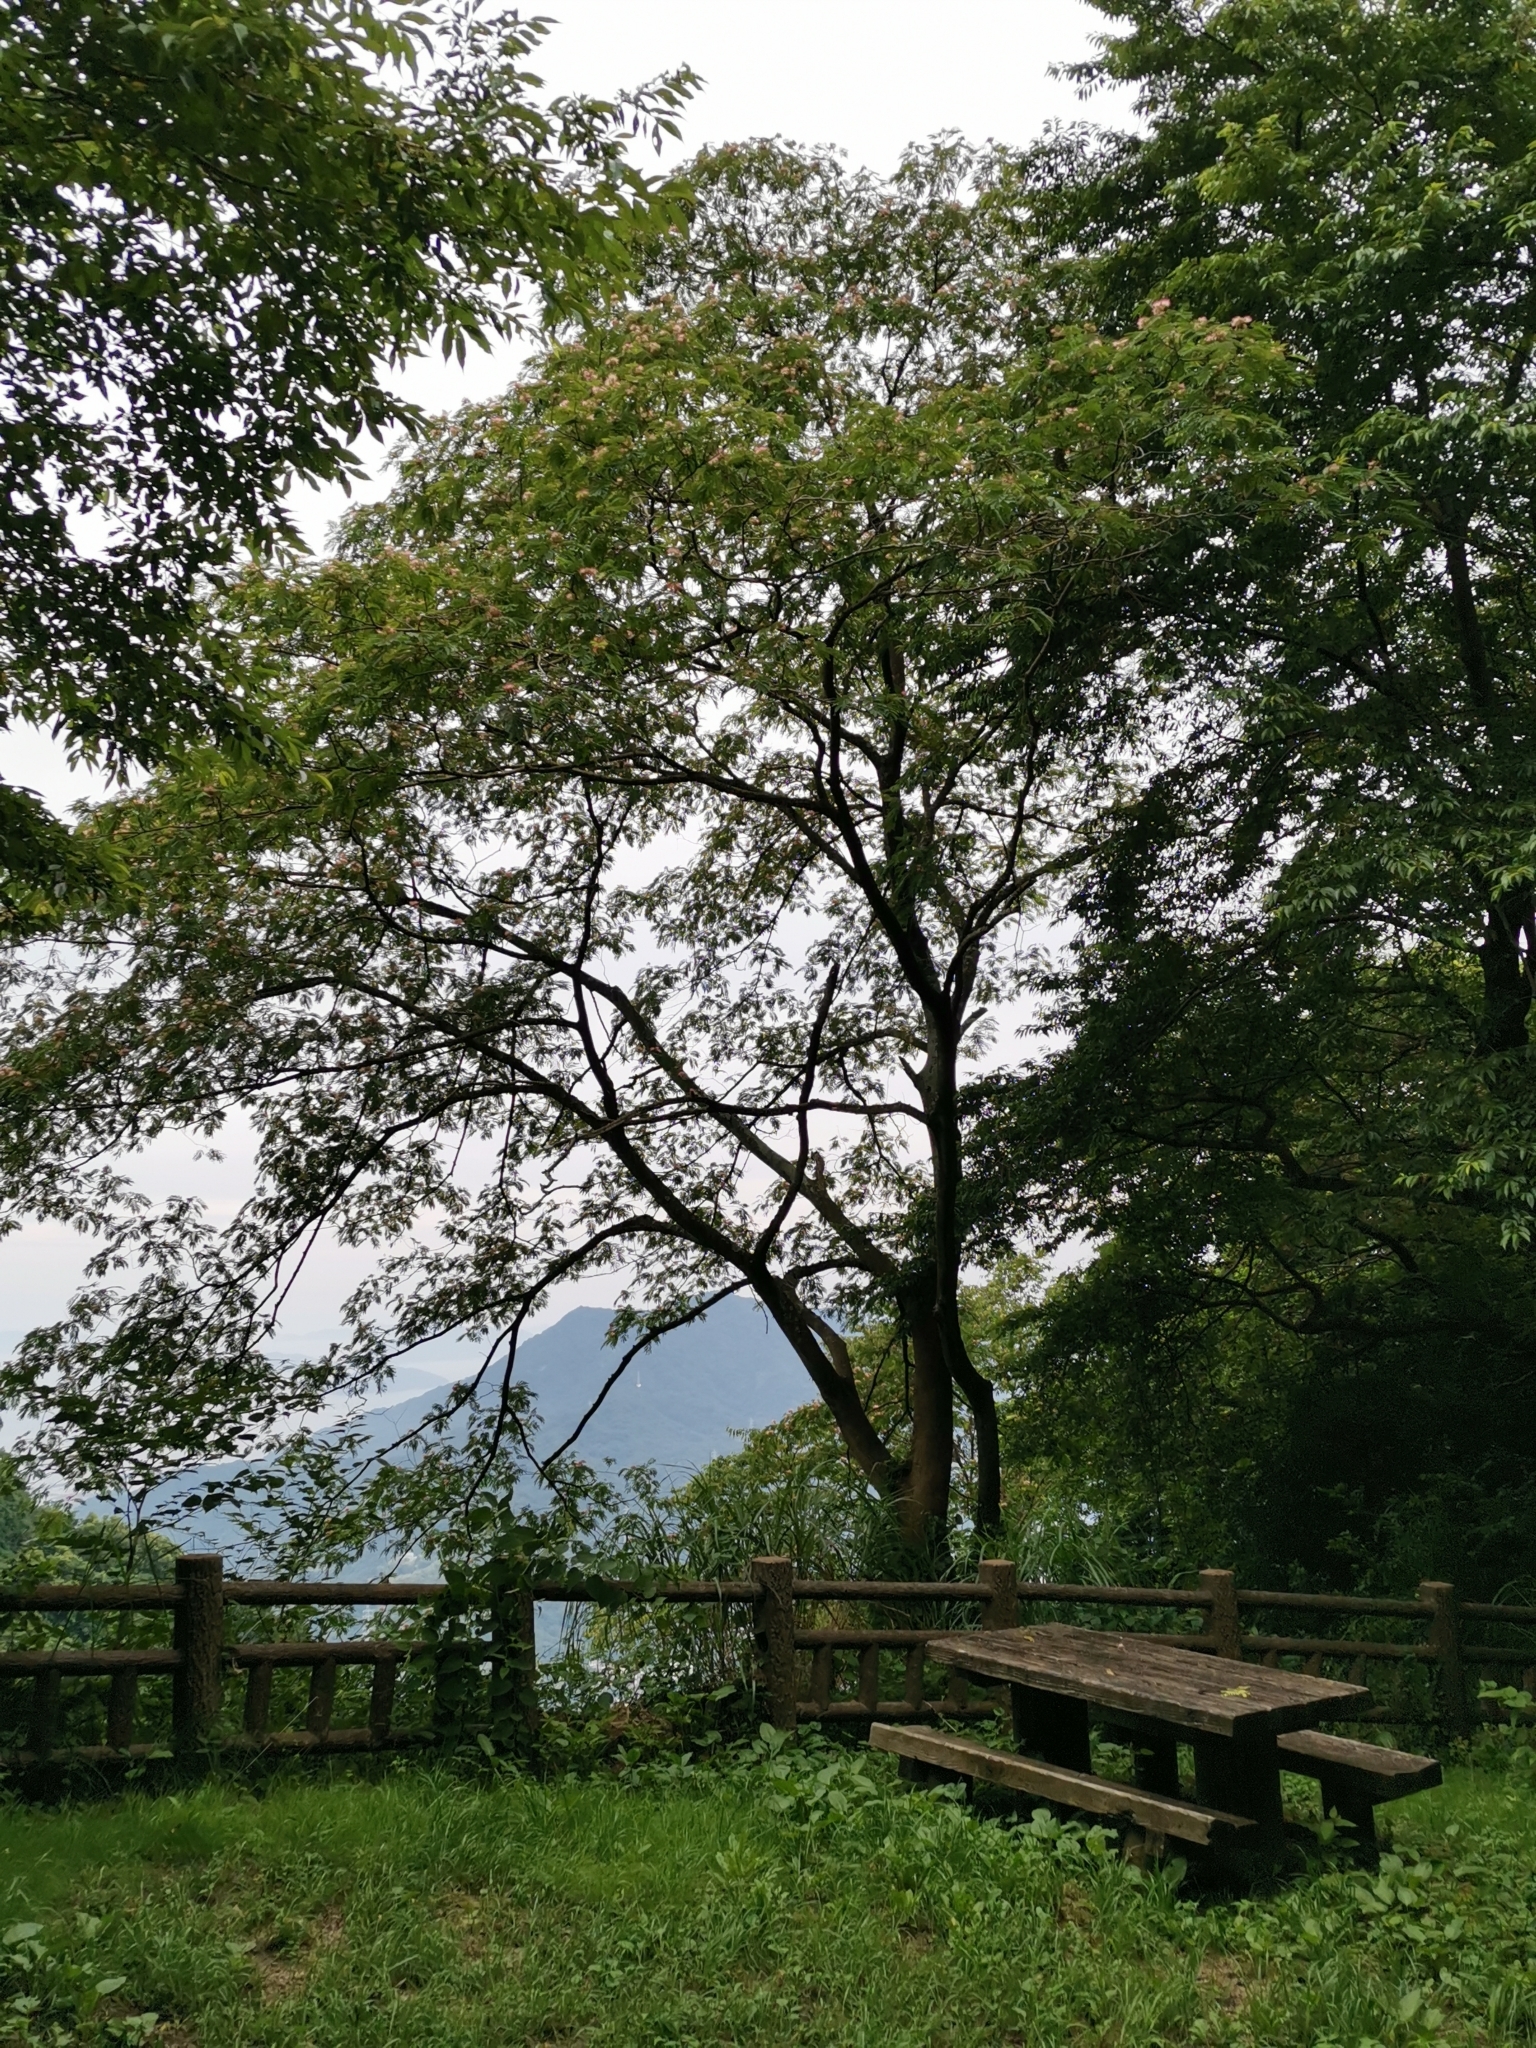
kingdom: Plantae
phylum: Tracheophyta
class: Magnoliopsida
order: Fabales
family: Fabaceae
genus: Albizia
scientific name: Albizia julibrissin
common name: Silktree
